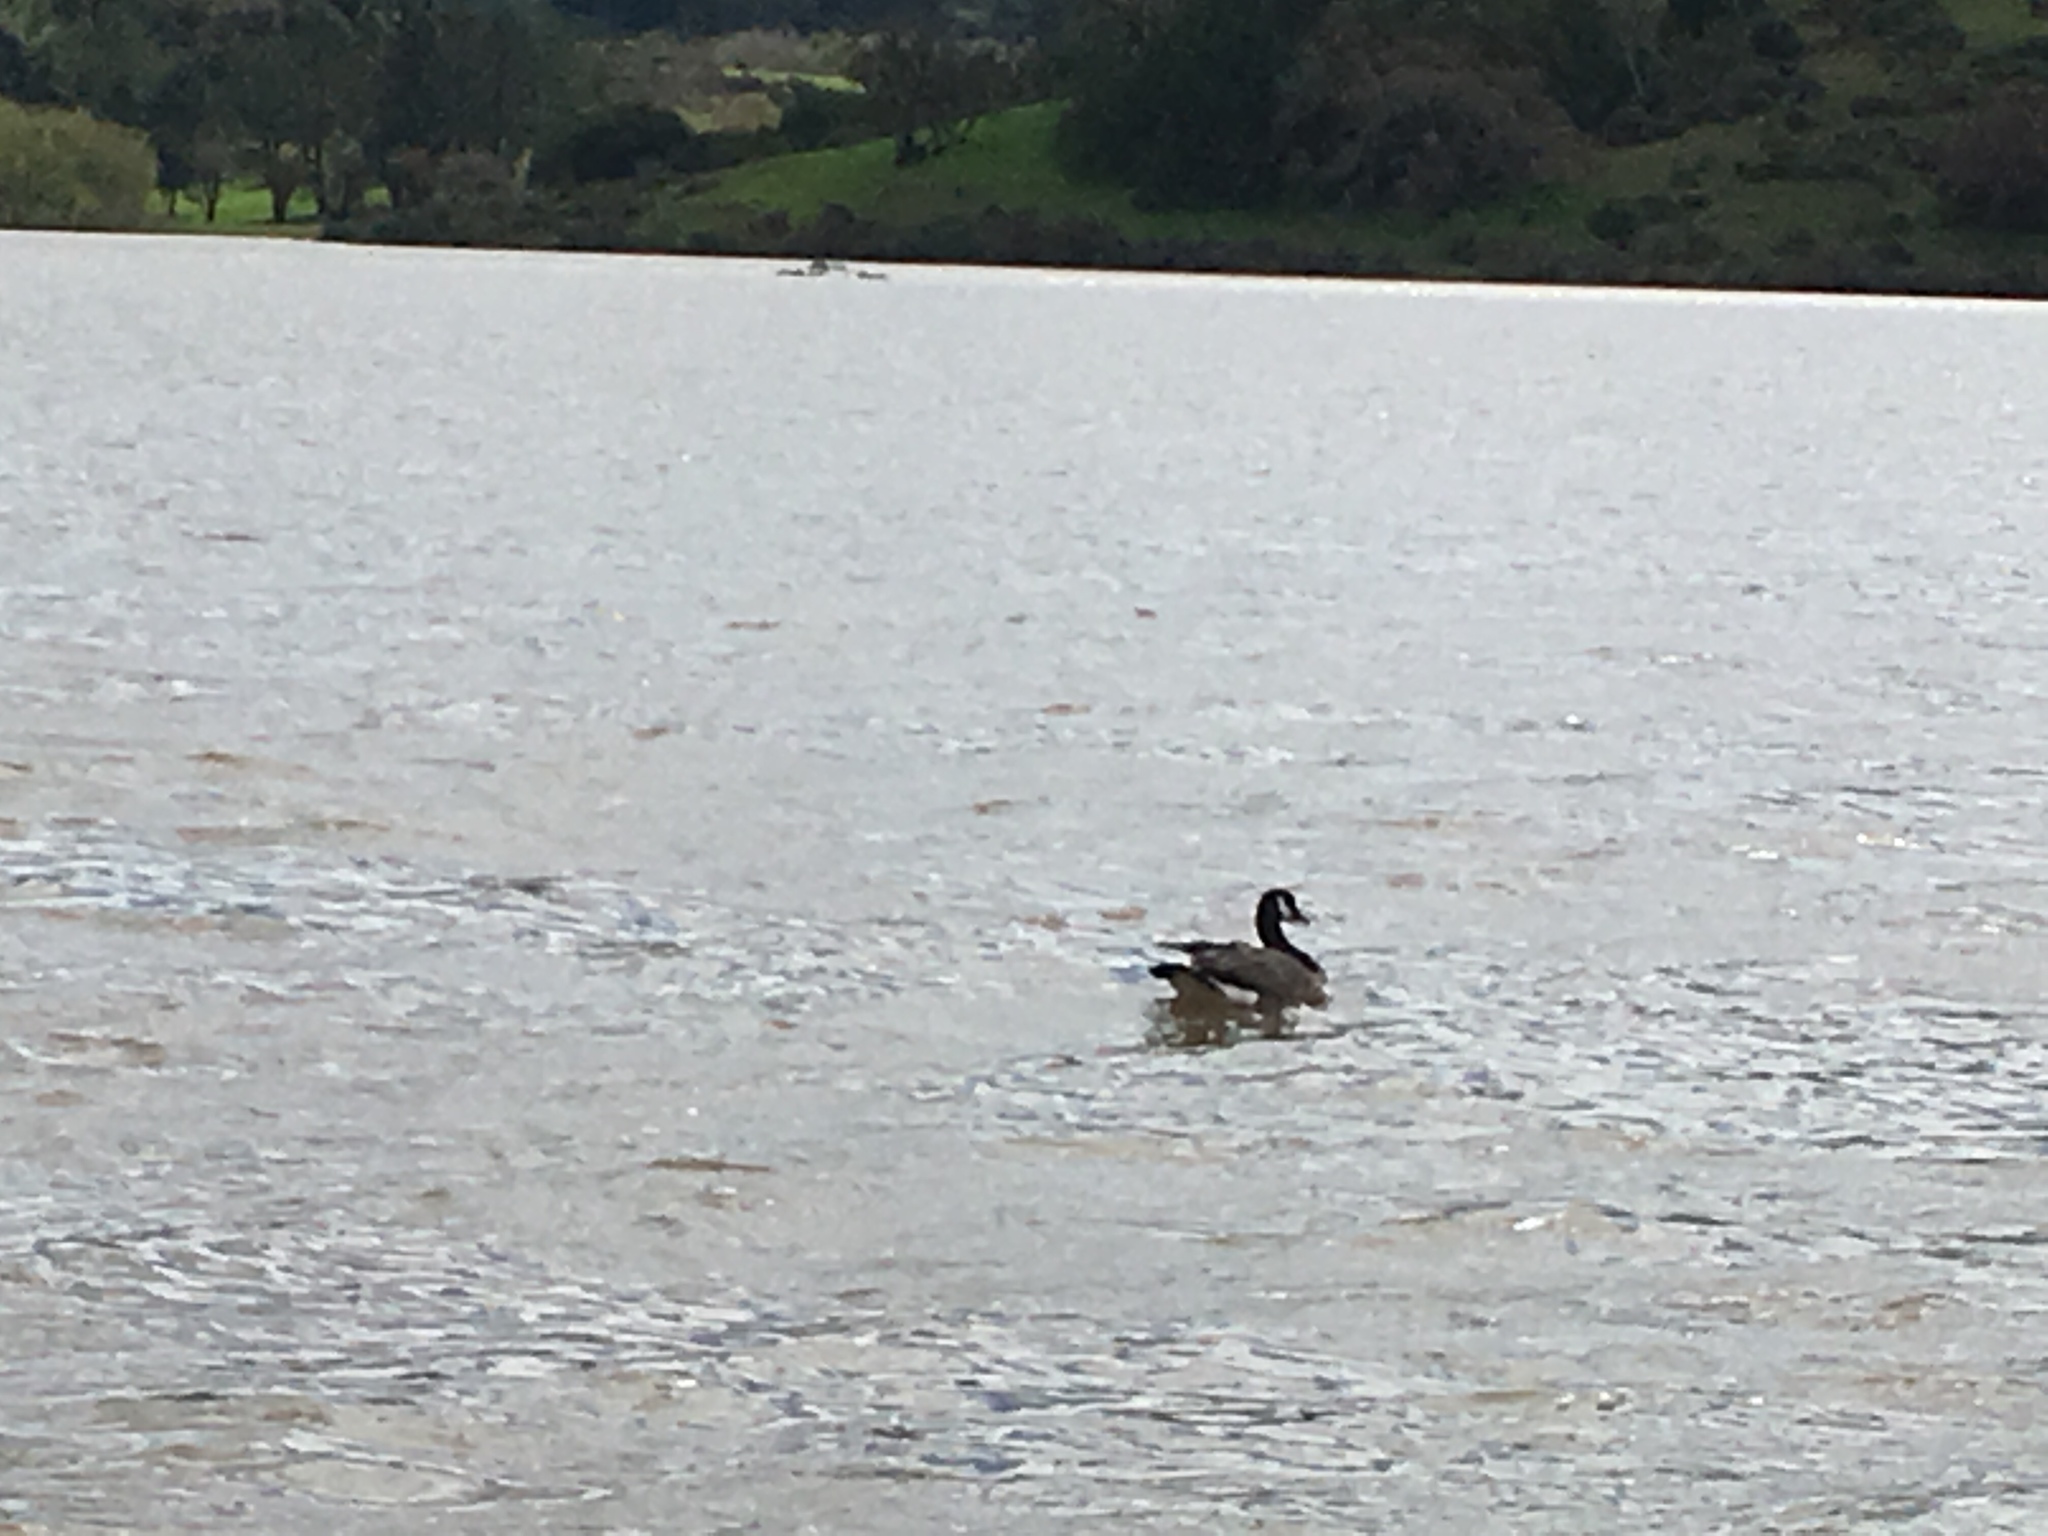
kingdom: Animalia
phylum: Chordata
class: Aves
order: Anseriformes
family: Anatidae
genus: Branta
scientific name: Branta canadensis
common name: Canada goose
